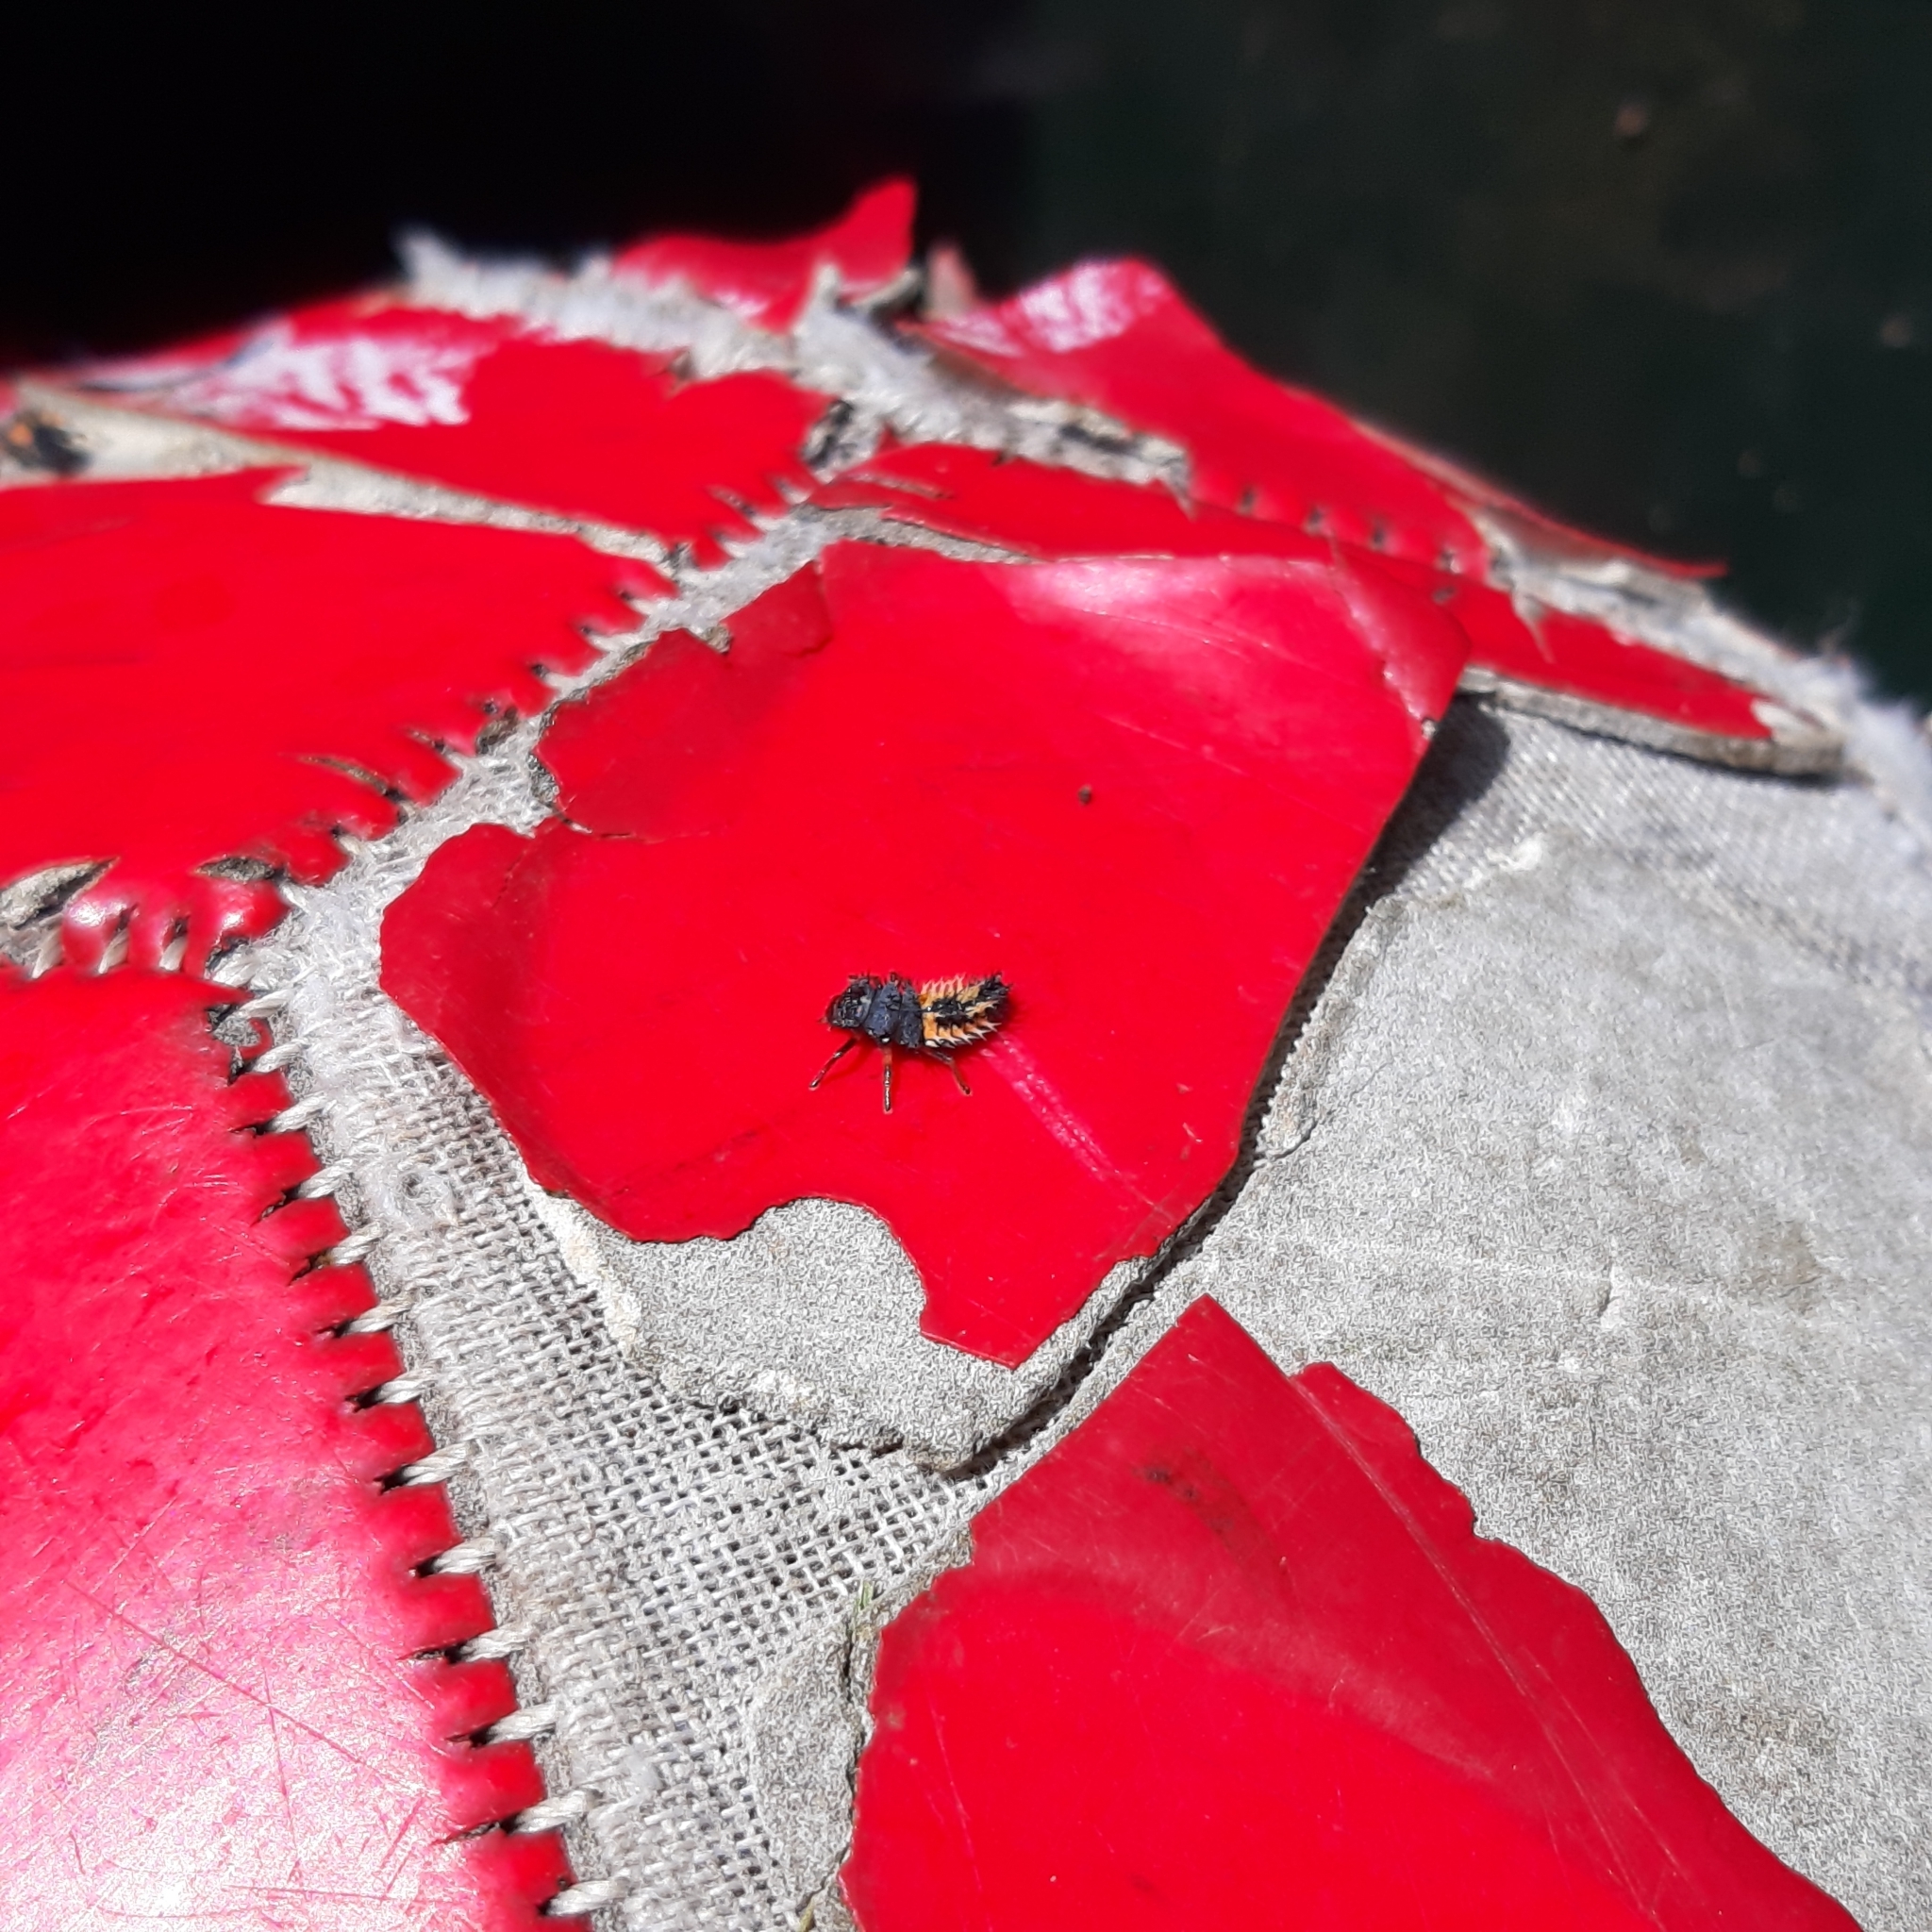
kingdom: Animalia
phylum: Arthropoda
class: Insecta
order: Coleoptera
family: Coccinellidae
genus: Harmonia
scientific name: Harmonia axyridis
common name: Harlequin ladybird
